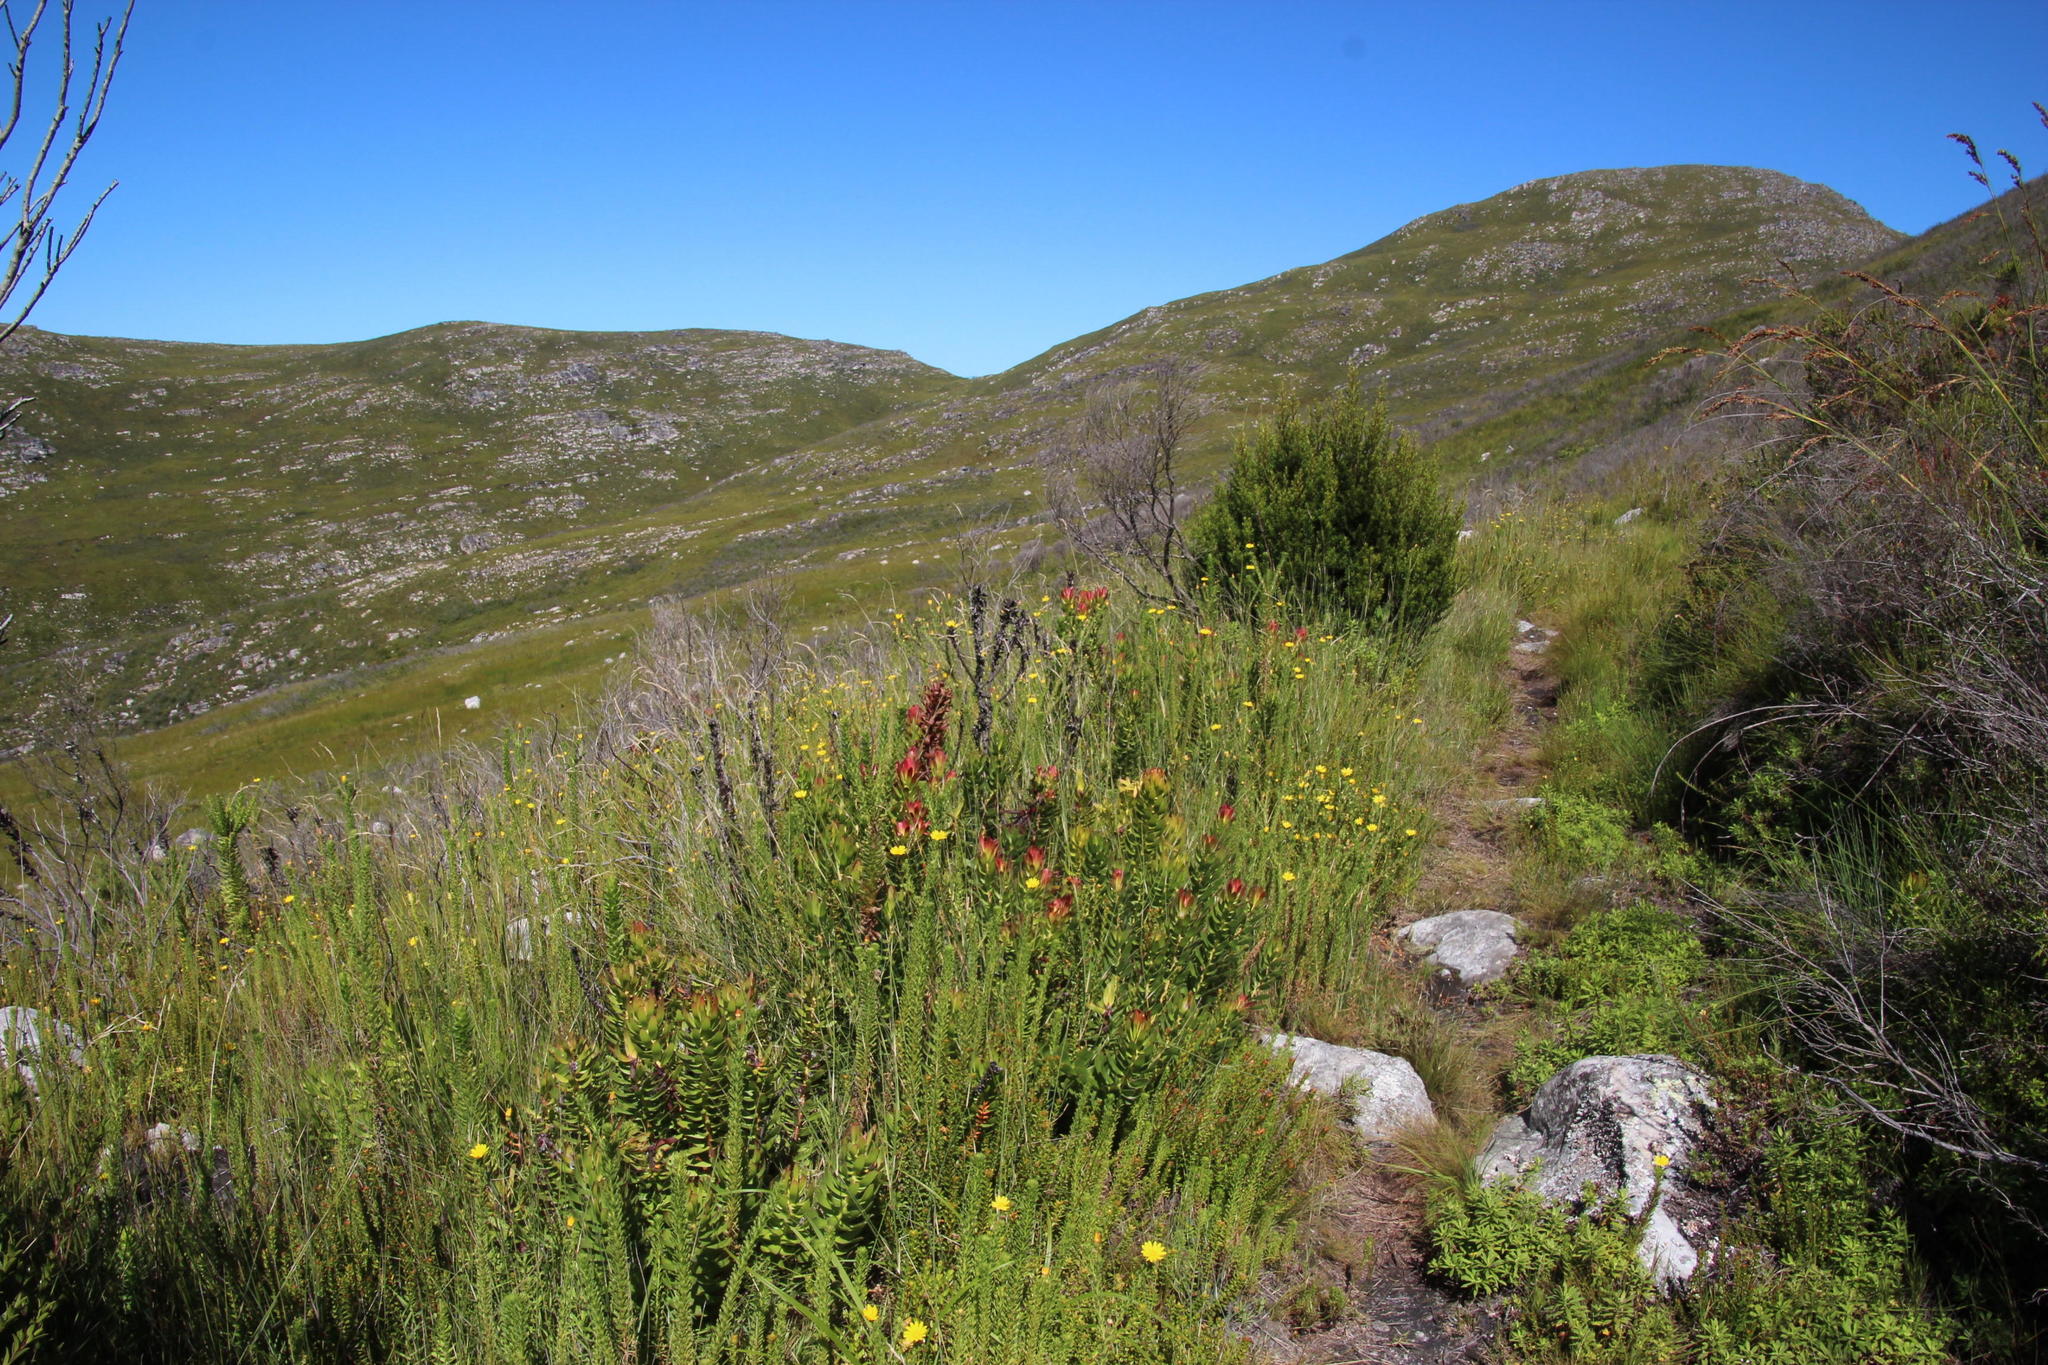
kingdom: Plantae
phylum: Tracheophyta
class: Magnoliopsida
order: Proteales
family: Proteaceae
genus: Mimetes
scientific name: Mimetes cucullatus
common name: Common pagoda
